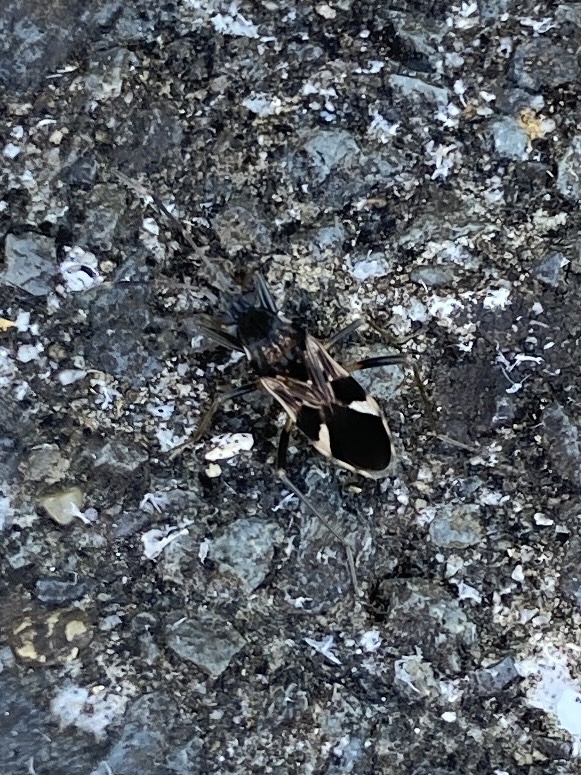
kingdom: Animalia
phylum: Arthropoda
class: Insecta
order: Hemiptera
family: Rhyparochromidae
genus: Dieuches
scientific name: Dieuches notatus
